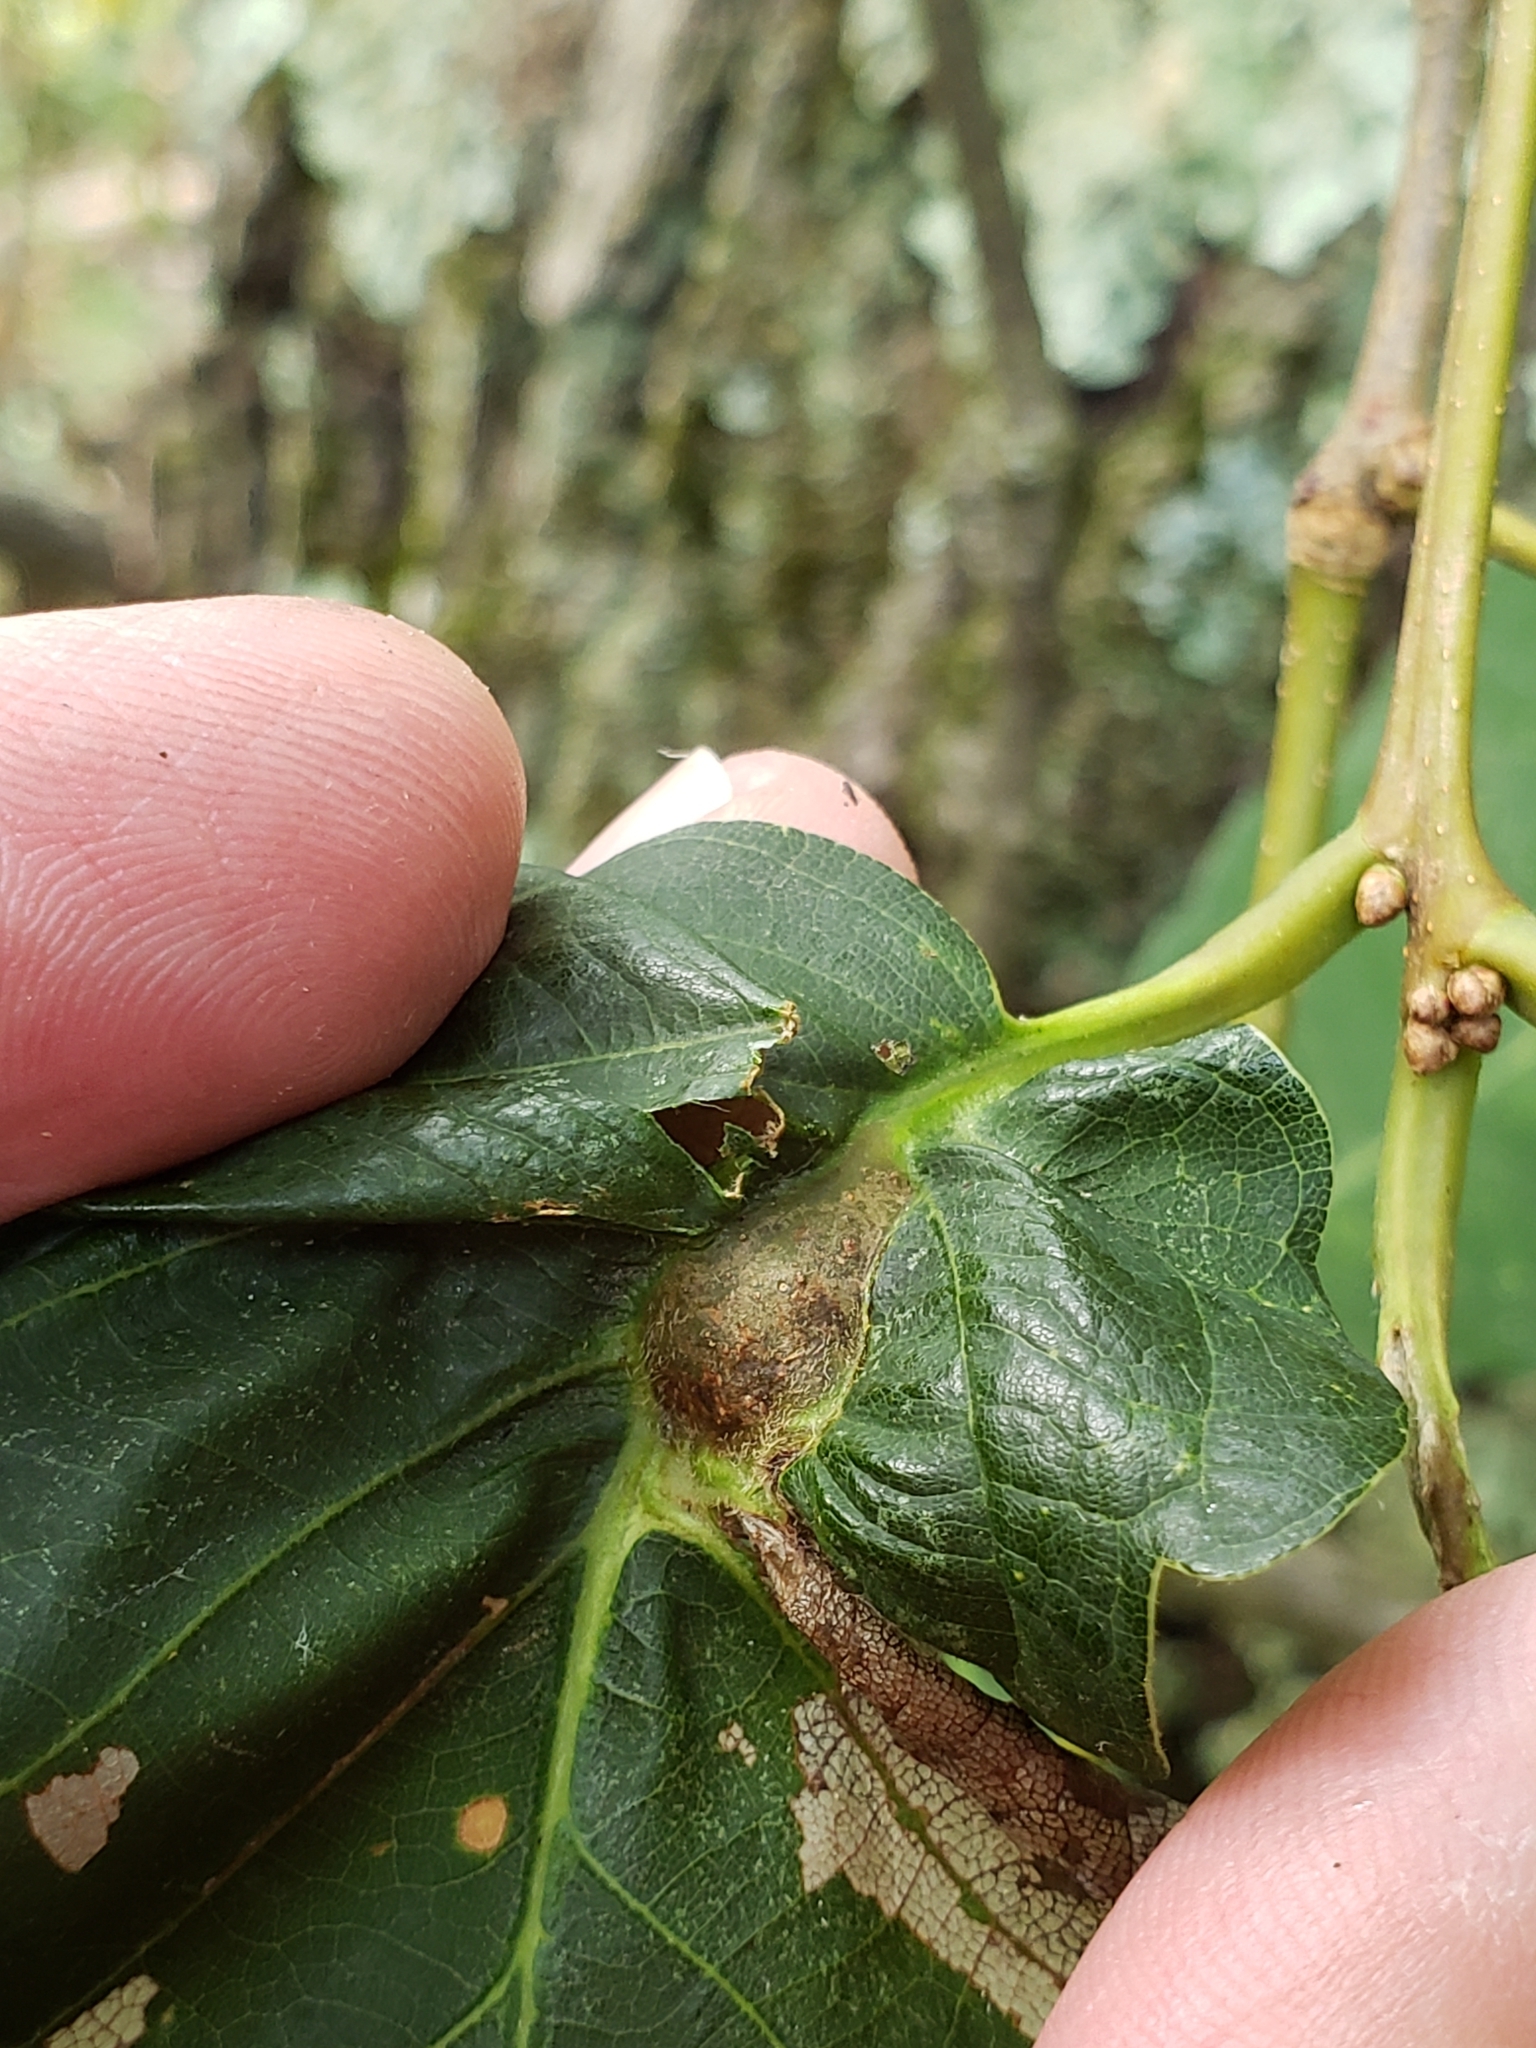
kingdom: Animalia
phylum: Arthropoda
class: Insecta
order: Hymenoptera
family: Cynipidae
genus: Andricus
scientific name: Andricus
